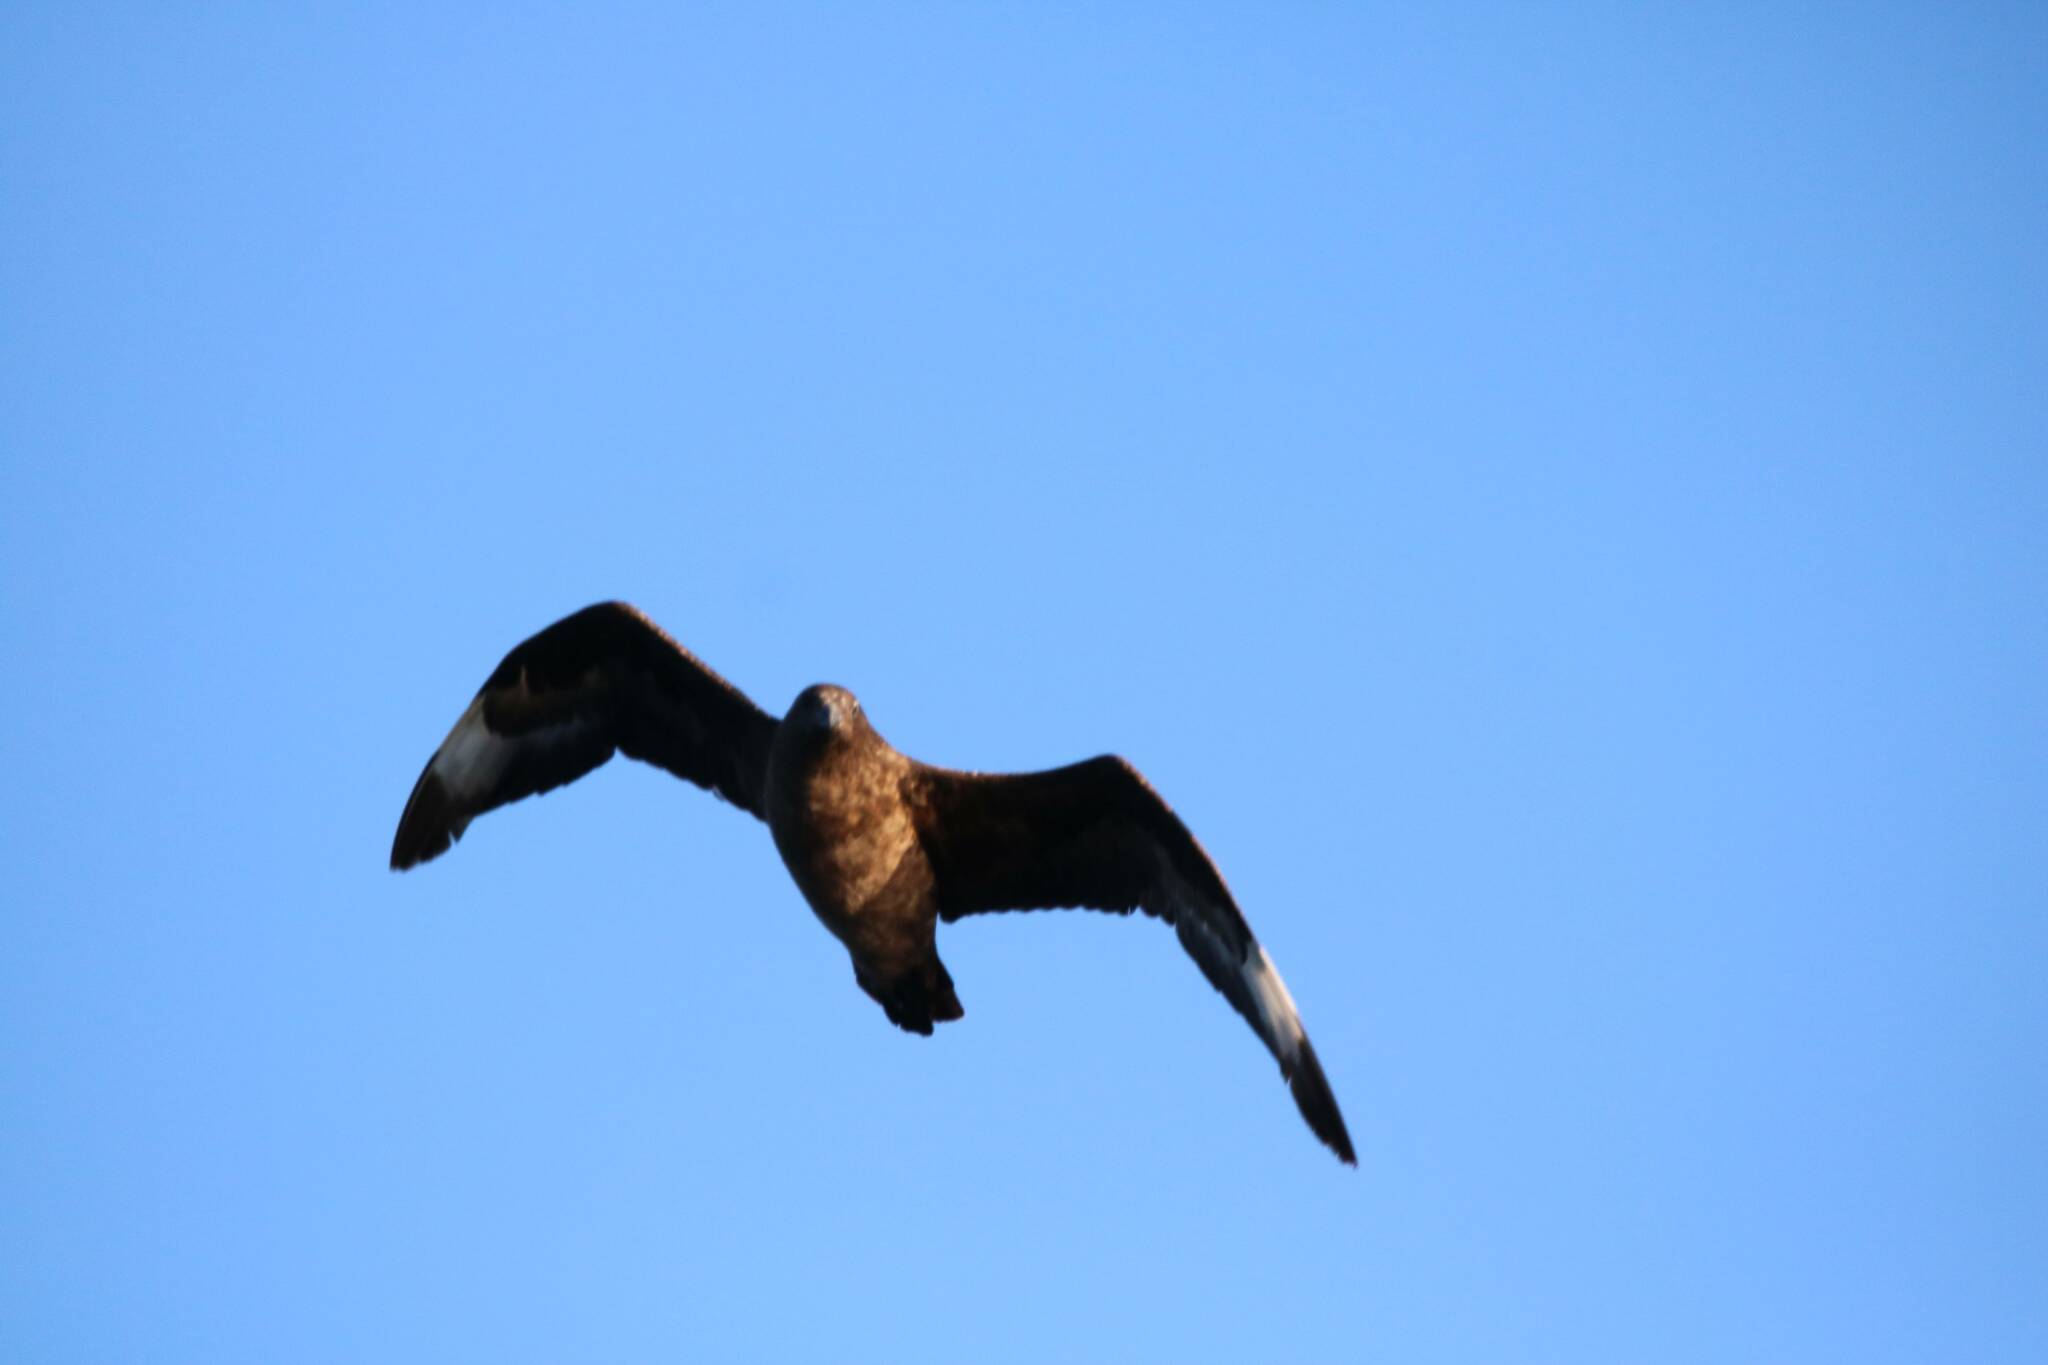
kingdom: Animalia
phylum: Chordata
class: Aves
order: Charadriiformes
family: Stercorariidae
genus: Stercorarius
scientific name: Stercorarius skua
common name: Great skua
